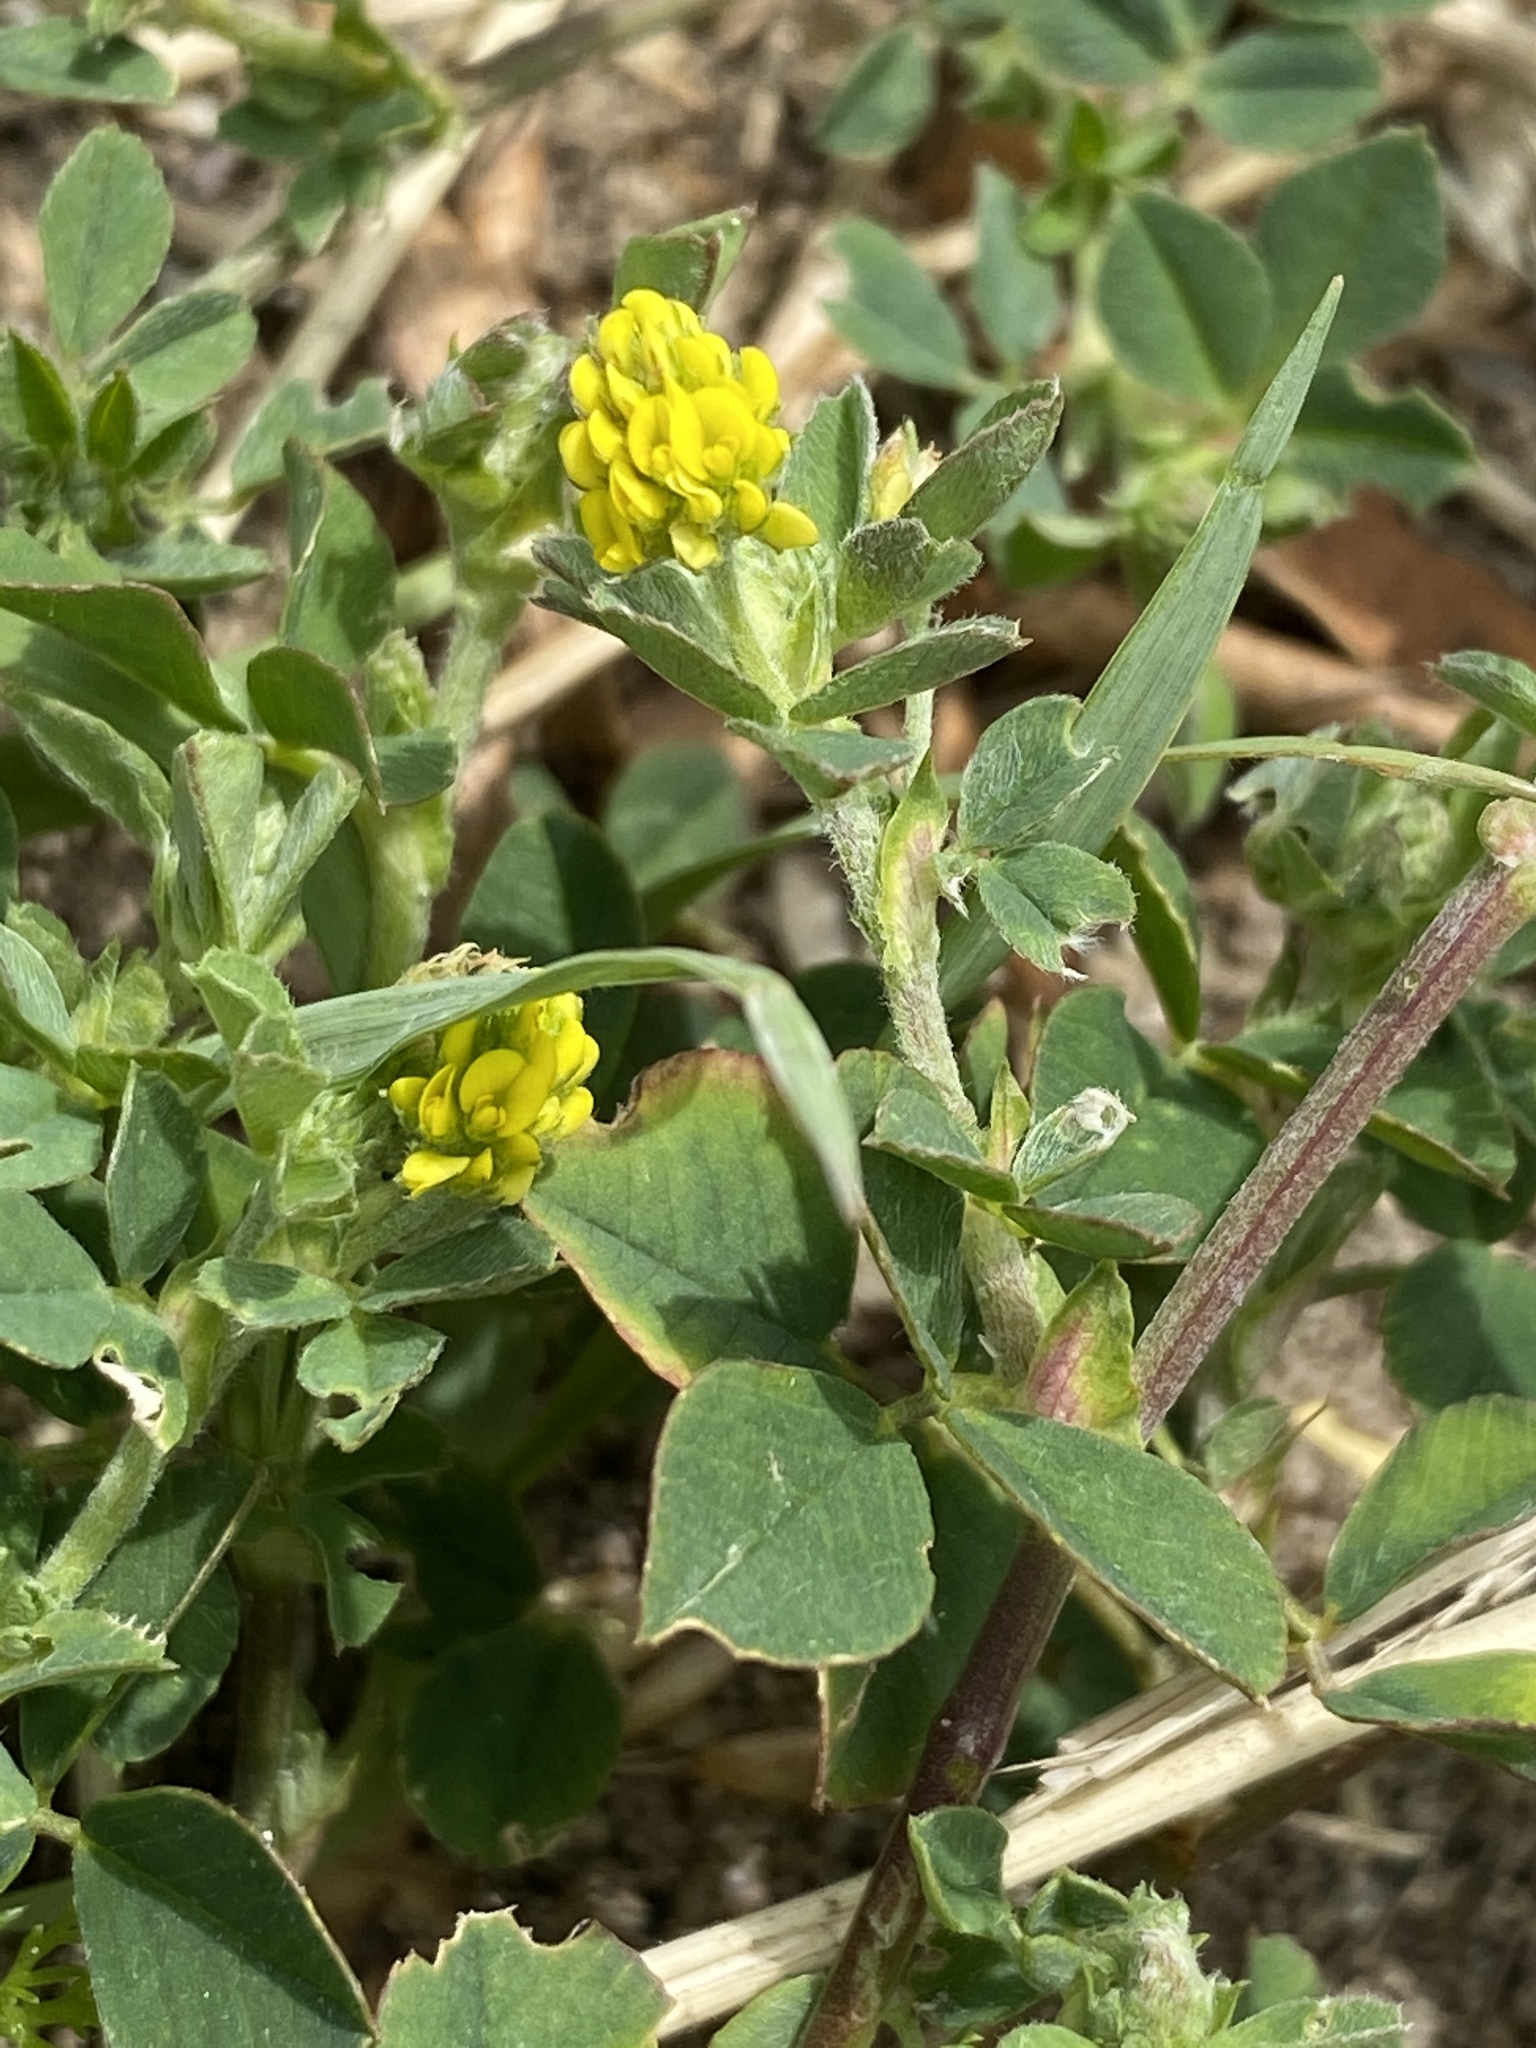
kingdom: Plantae
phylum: Tracheophyta
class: Magnoliopsida
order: Fabales
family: Fabaceae
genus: Medicago
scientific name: Medicago lupulina
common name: Black medick
